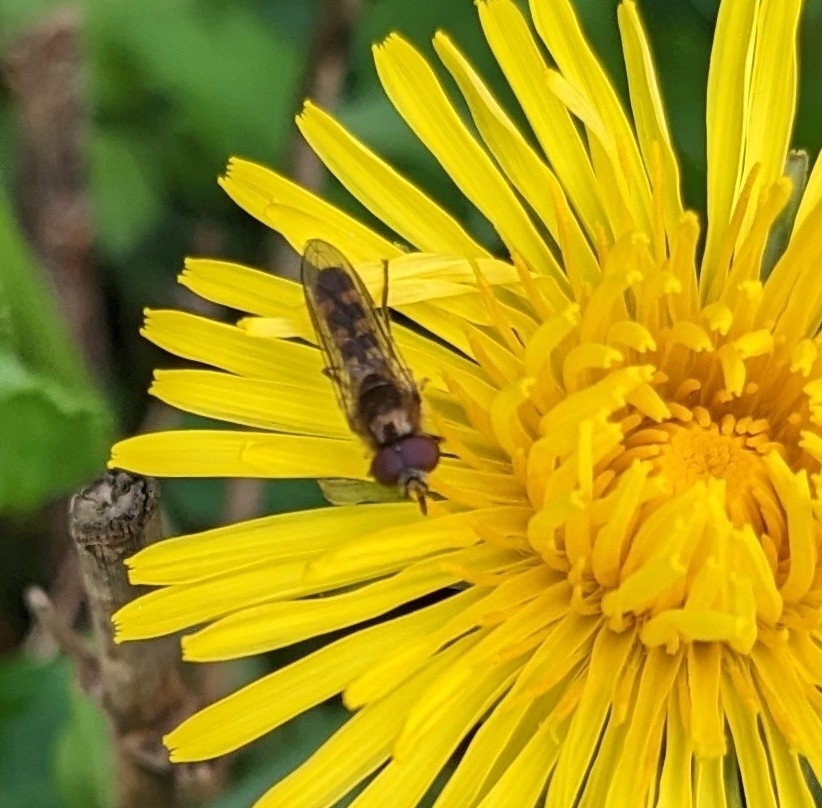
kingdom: Animalia
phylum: Arthropoda
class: Insecta
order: Diptera
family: Syrphidae
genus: Platycheirus
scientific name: Platycheirus
